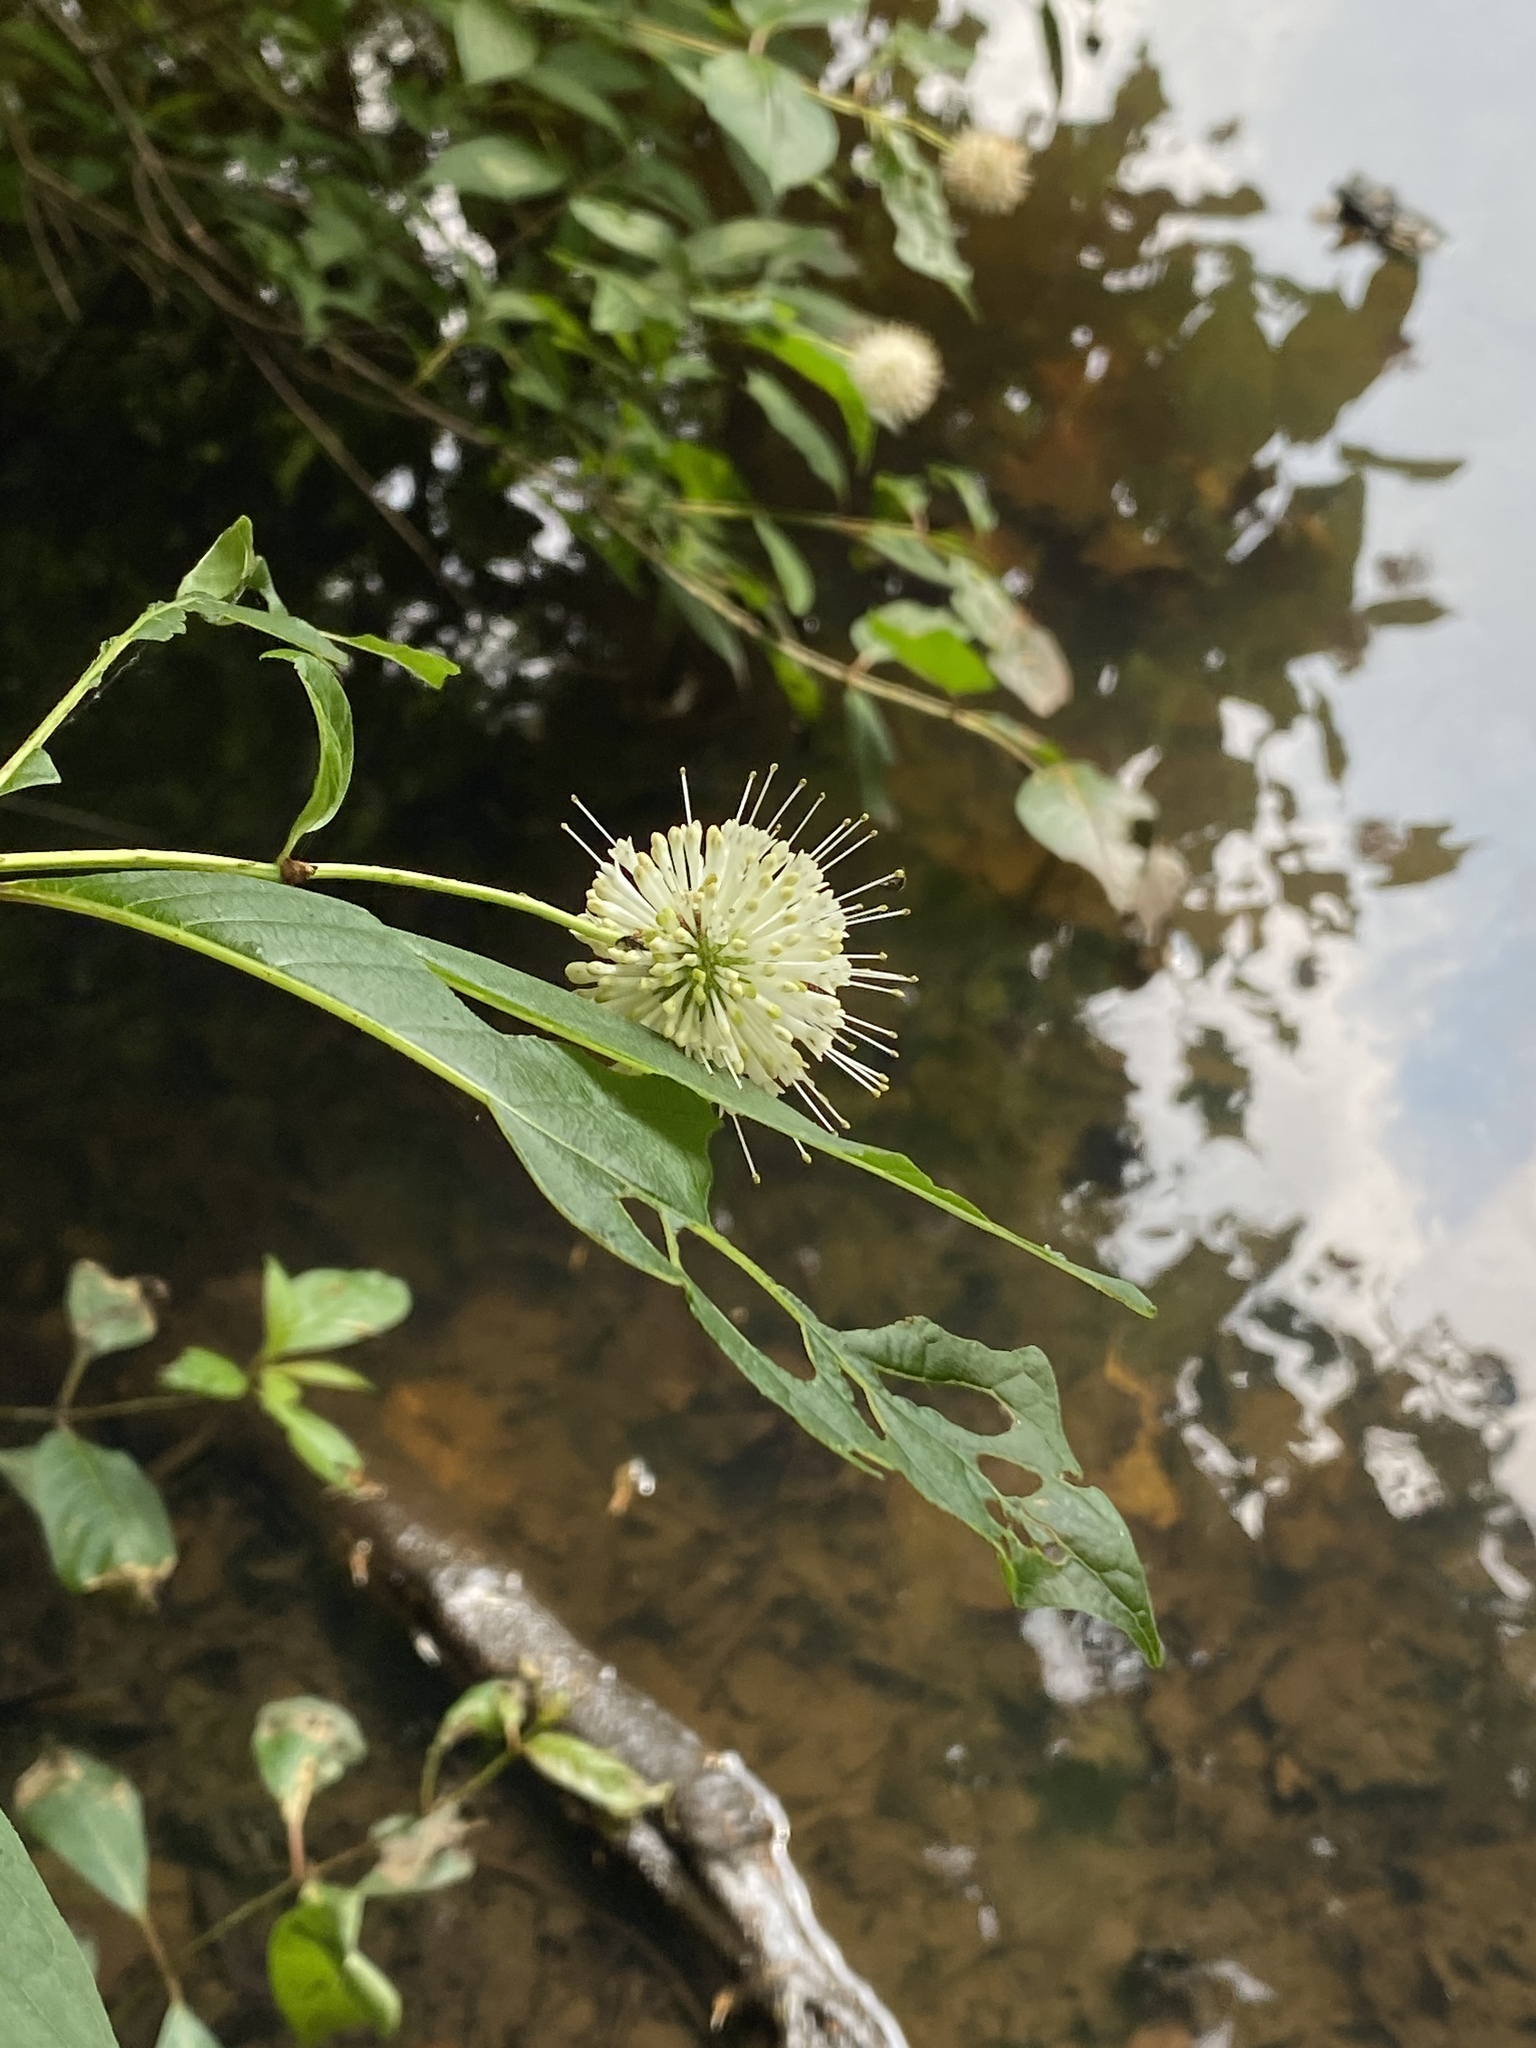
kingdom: Plantae
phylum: Tracheophyta
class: Magnoliopsida
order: Gentianales
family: Rubiaceae
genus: Cephalanthus
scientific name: Cephalanthus occidentalis
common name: Button-willow
